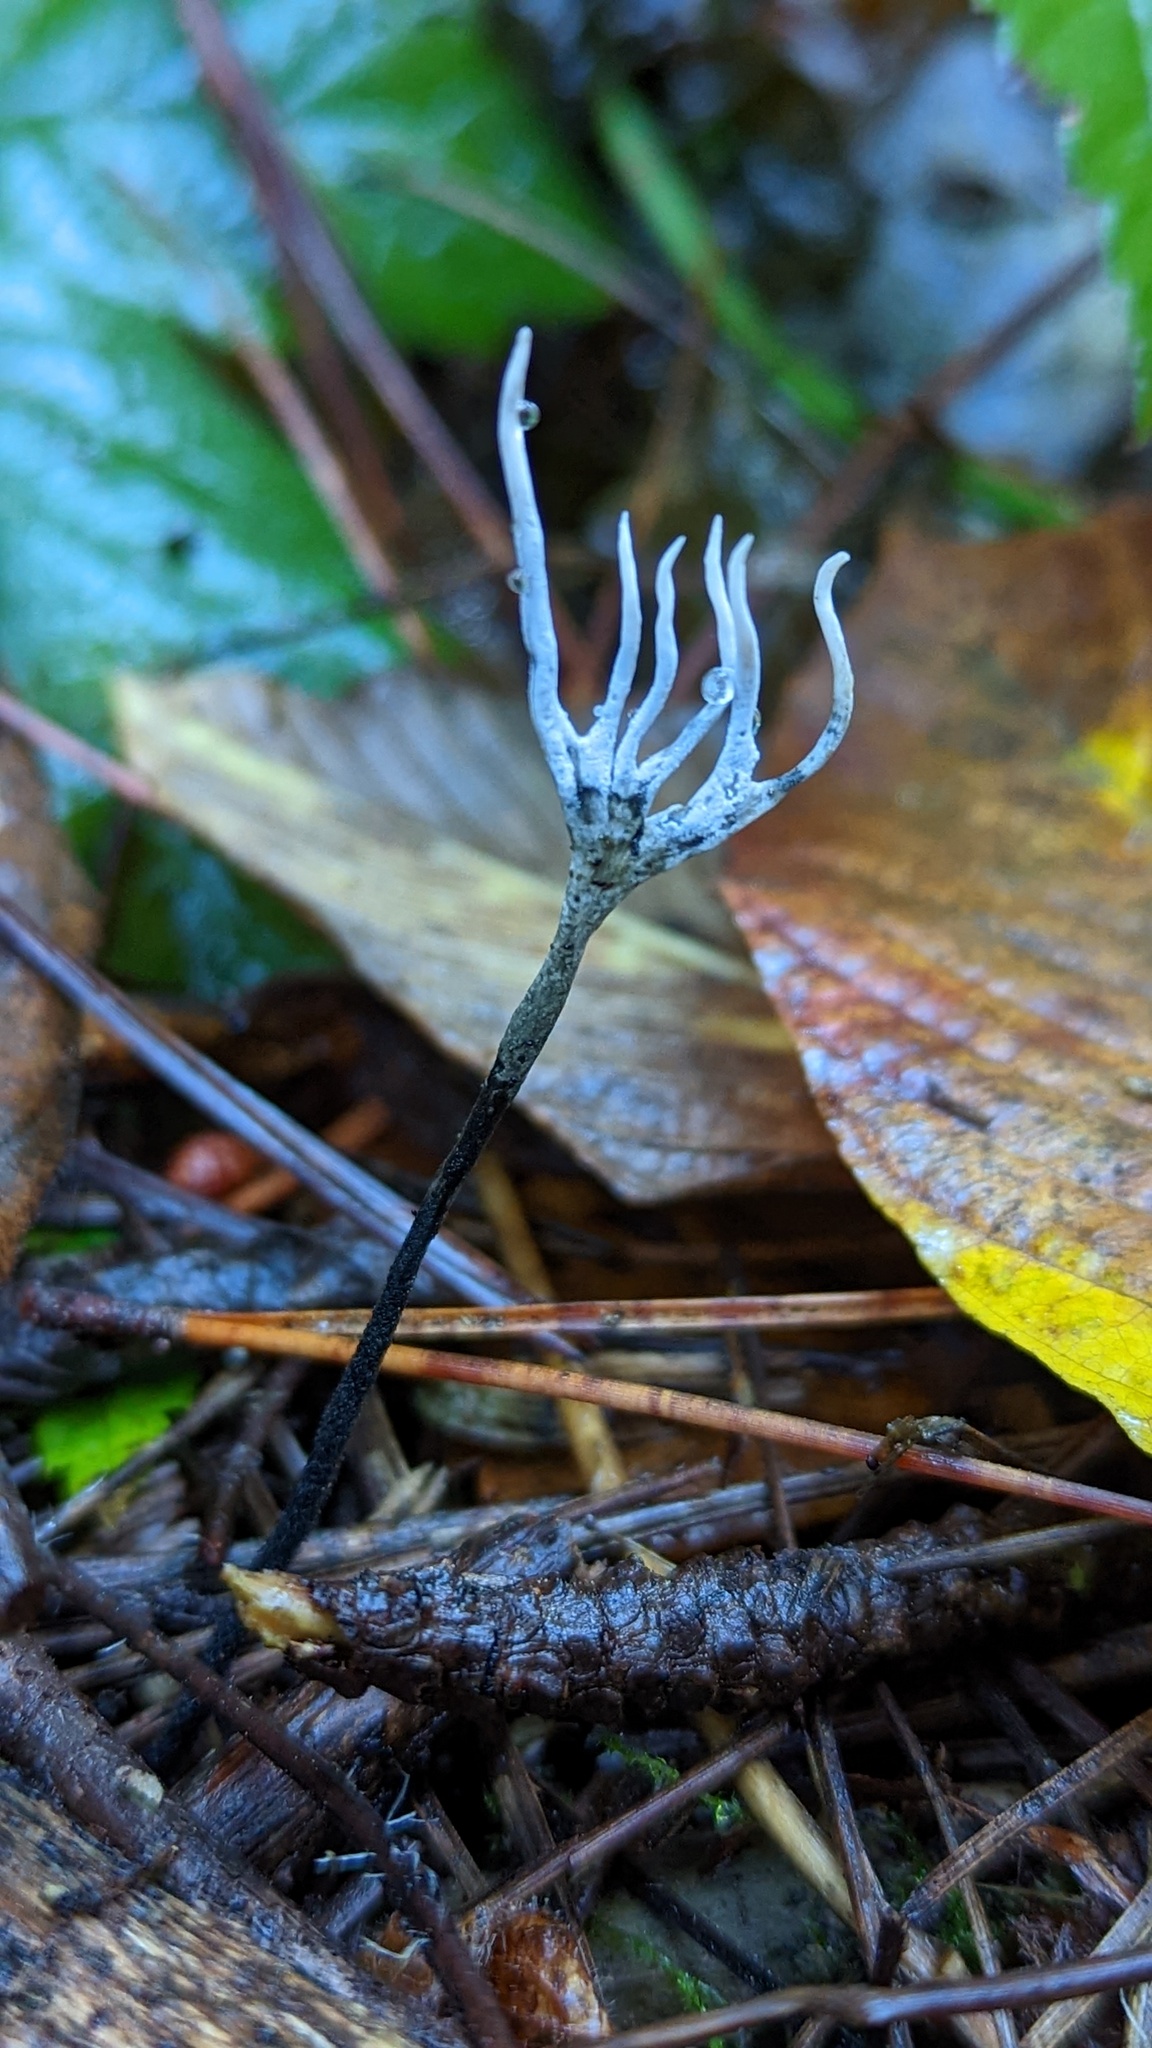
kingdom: Fungi
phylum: Ascomycota
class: Sordariomycetes
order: Xylariales
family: Xylariaceae
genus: Xylaria
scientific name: Xylaria hypoxylon
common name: Candle-snuff fungus
